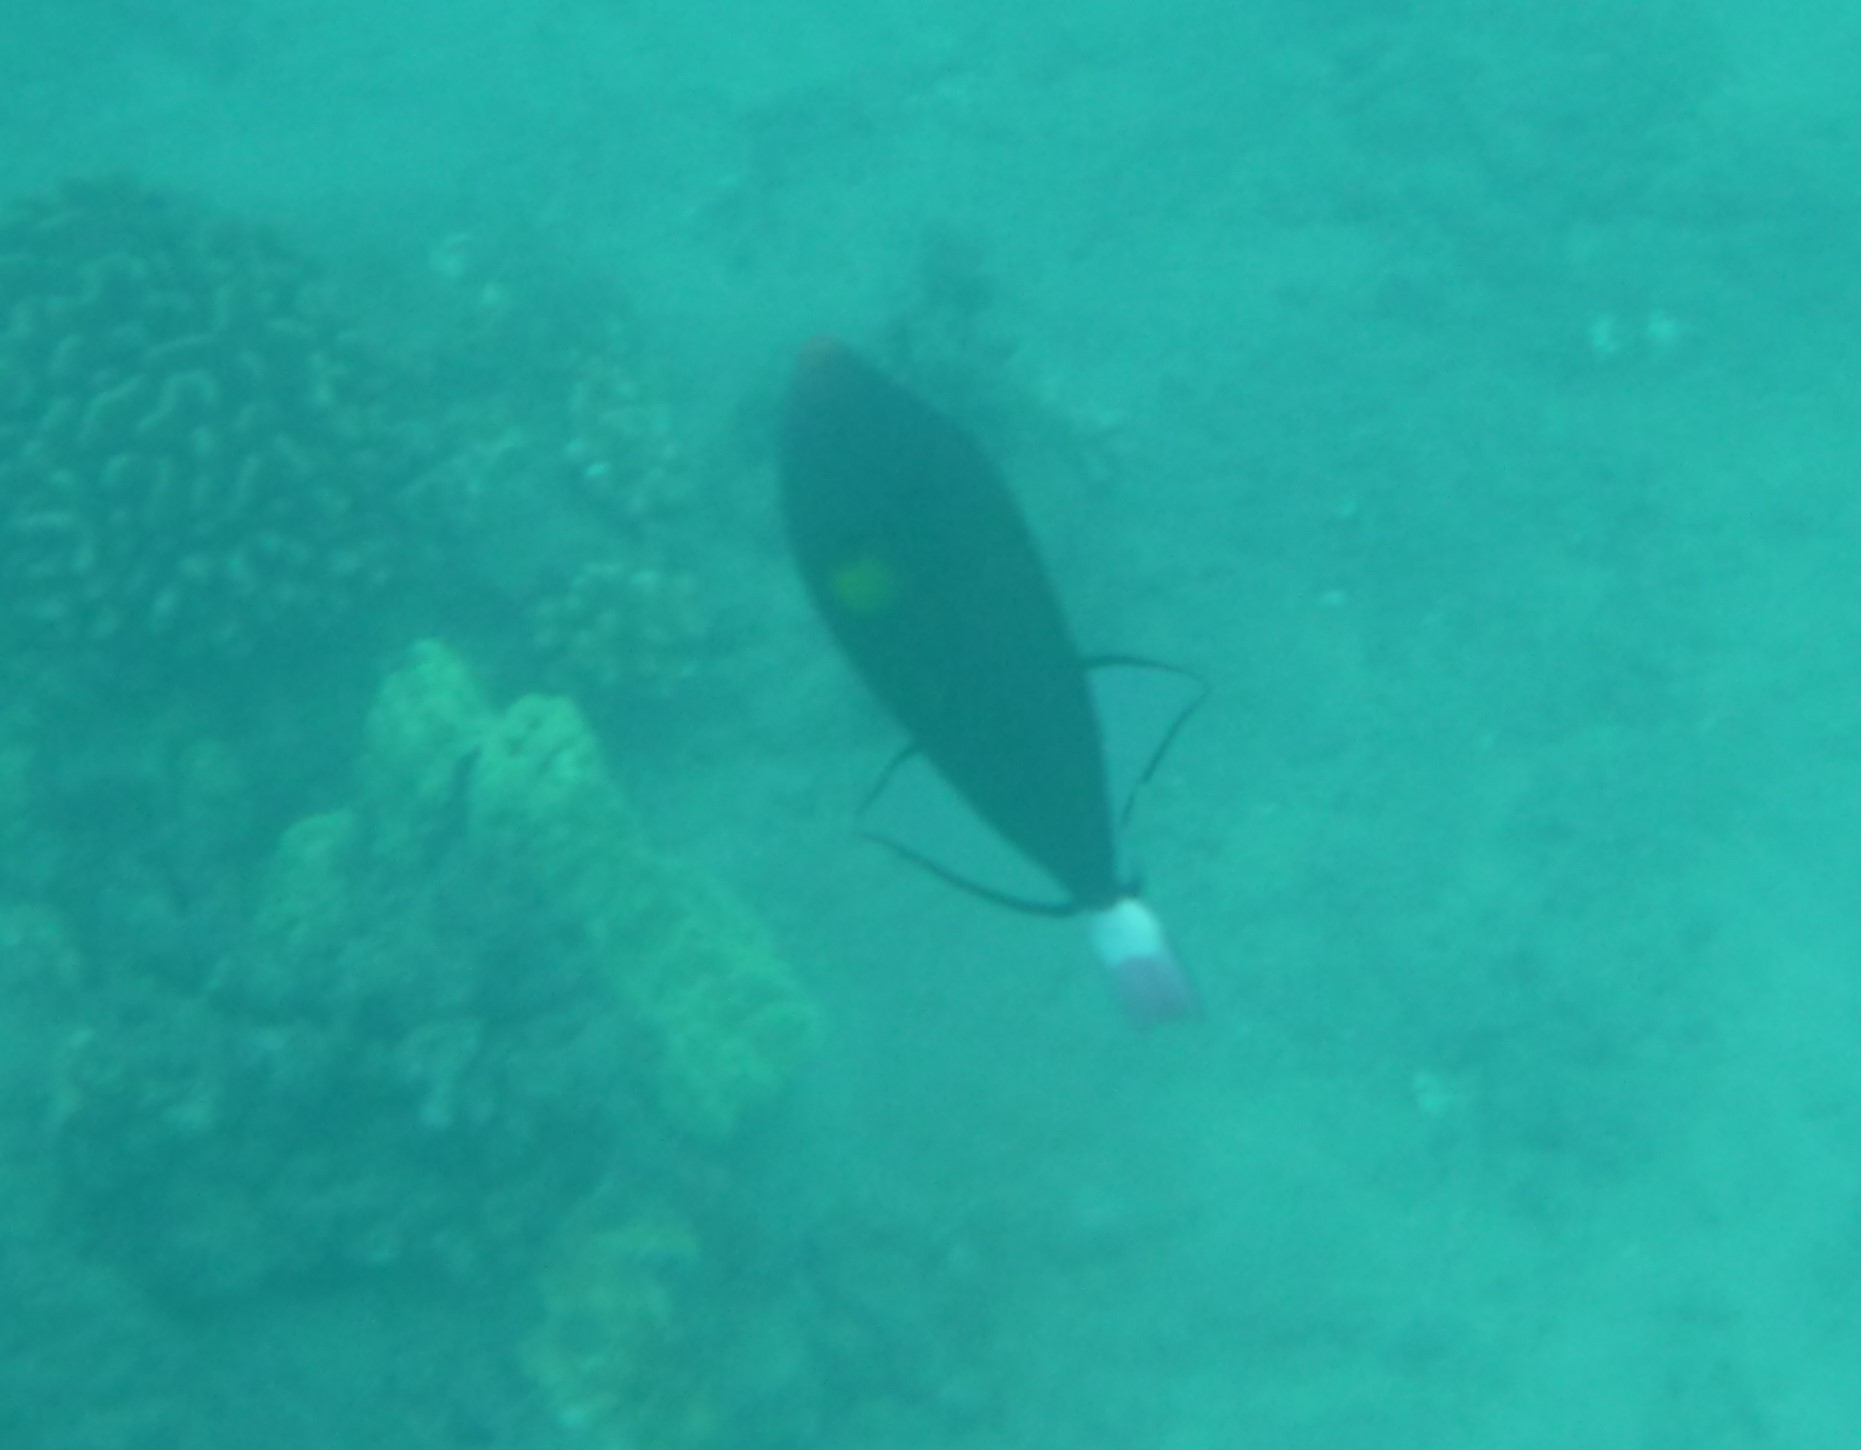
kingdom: Animalia
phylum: Chordata
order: Tetraodontiformes
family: Balistidae
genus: Melichthys
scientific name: Melichthys vidua
